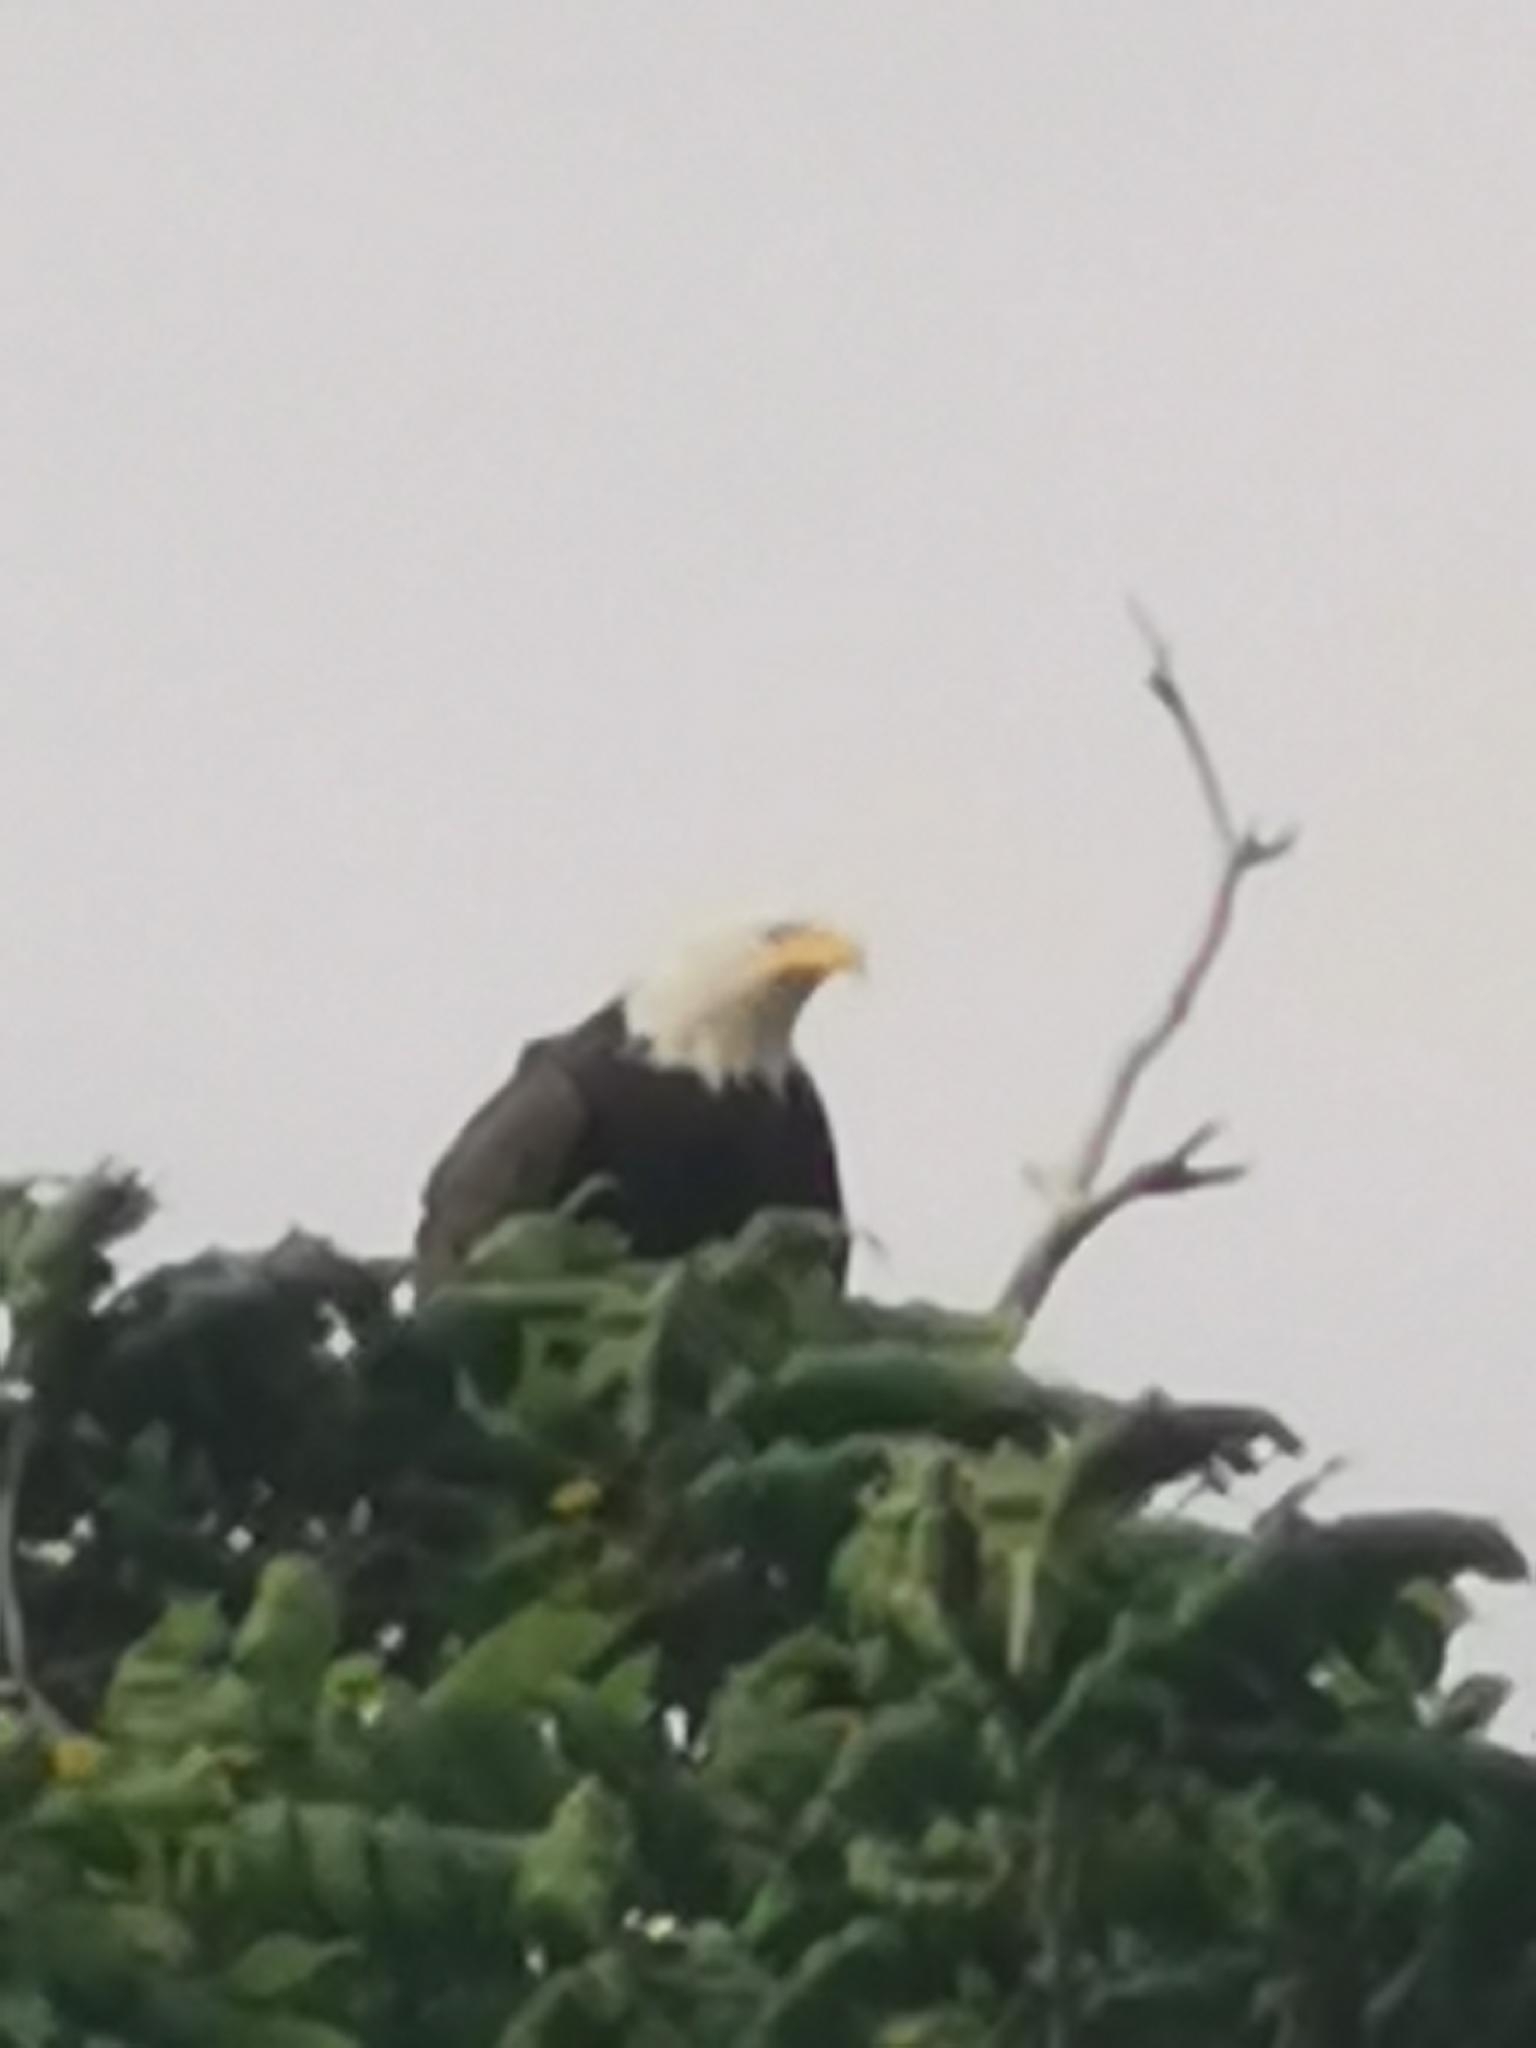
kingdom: Animalia
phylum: Chordata
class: Aves
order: Accipitriformes
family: Accipitridae
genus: Haliaeetus
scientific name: Haliaeetus leucocephalus
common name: Bald eagle
